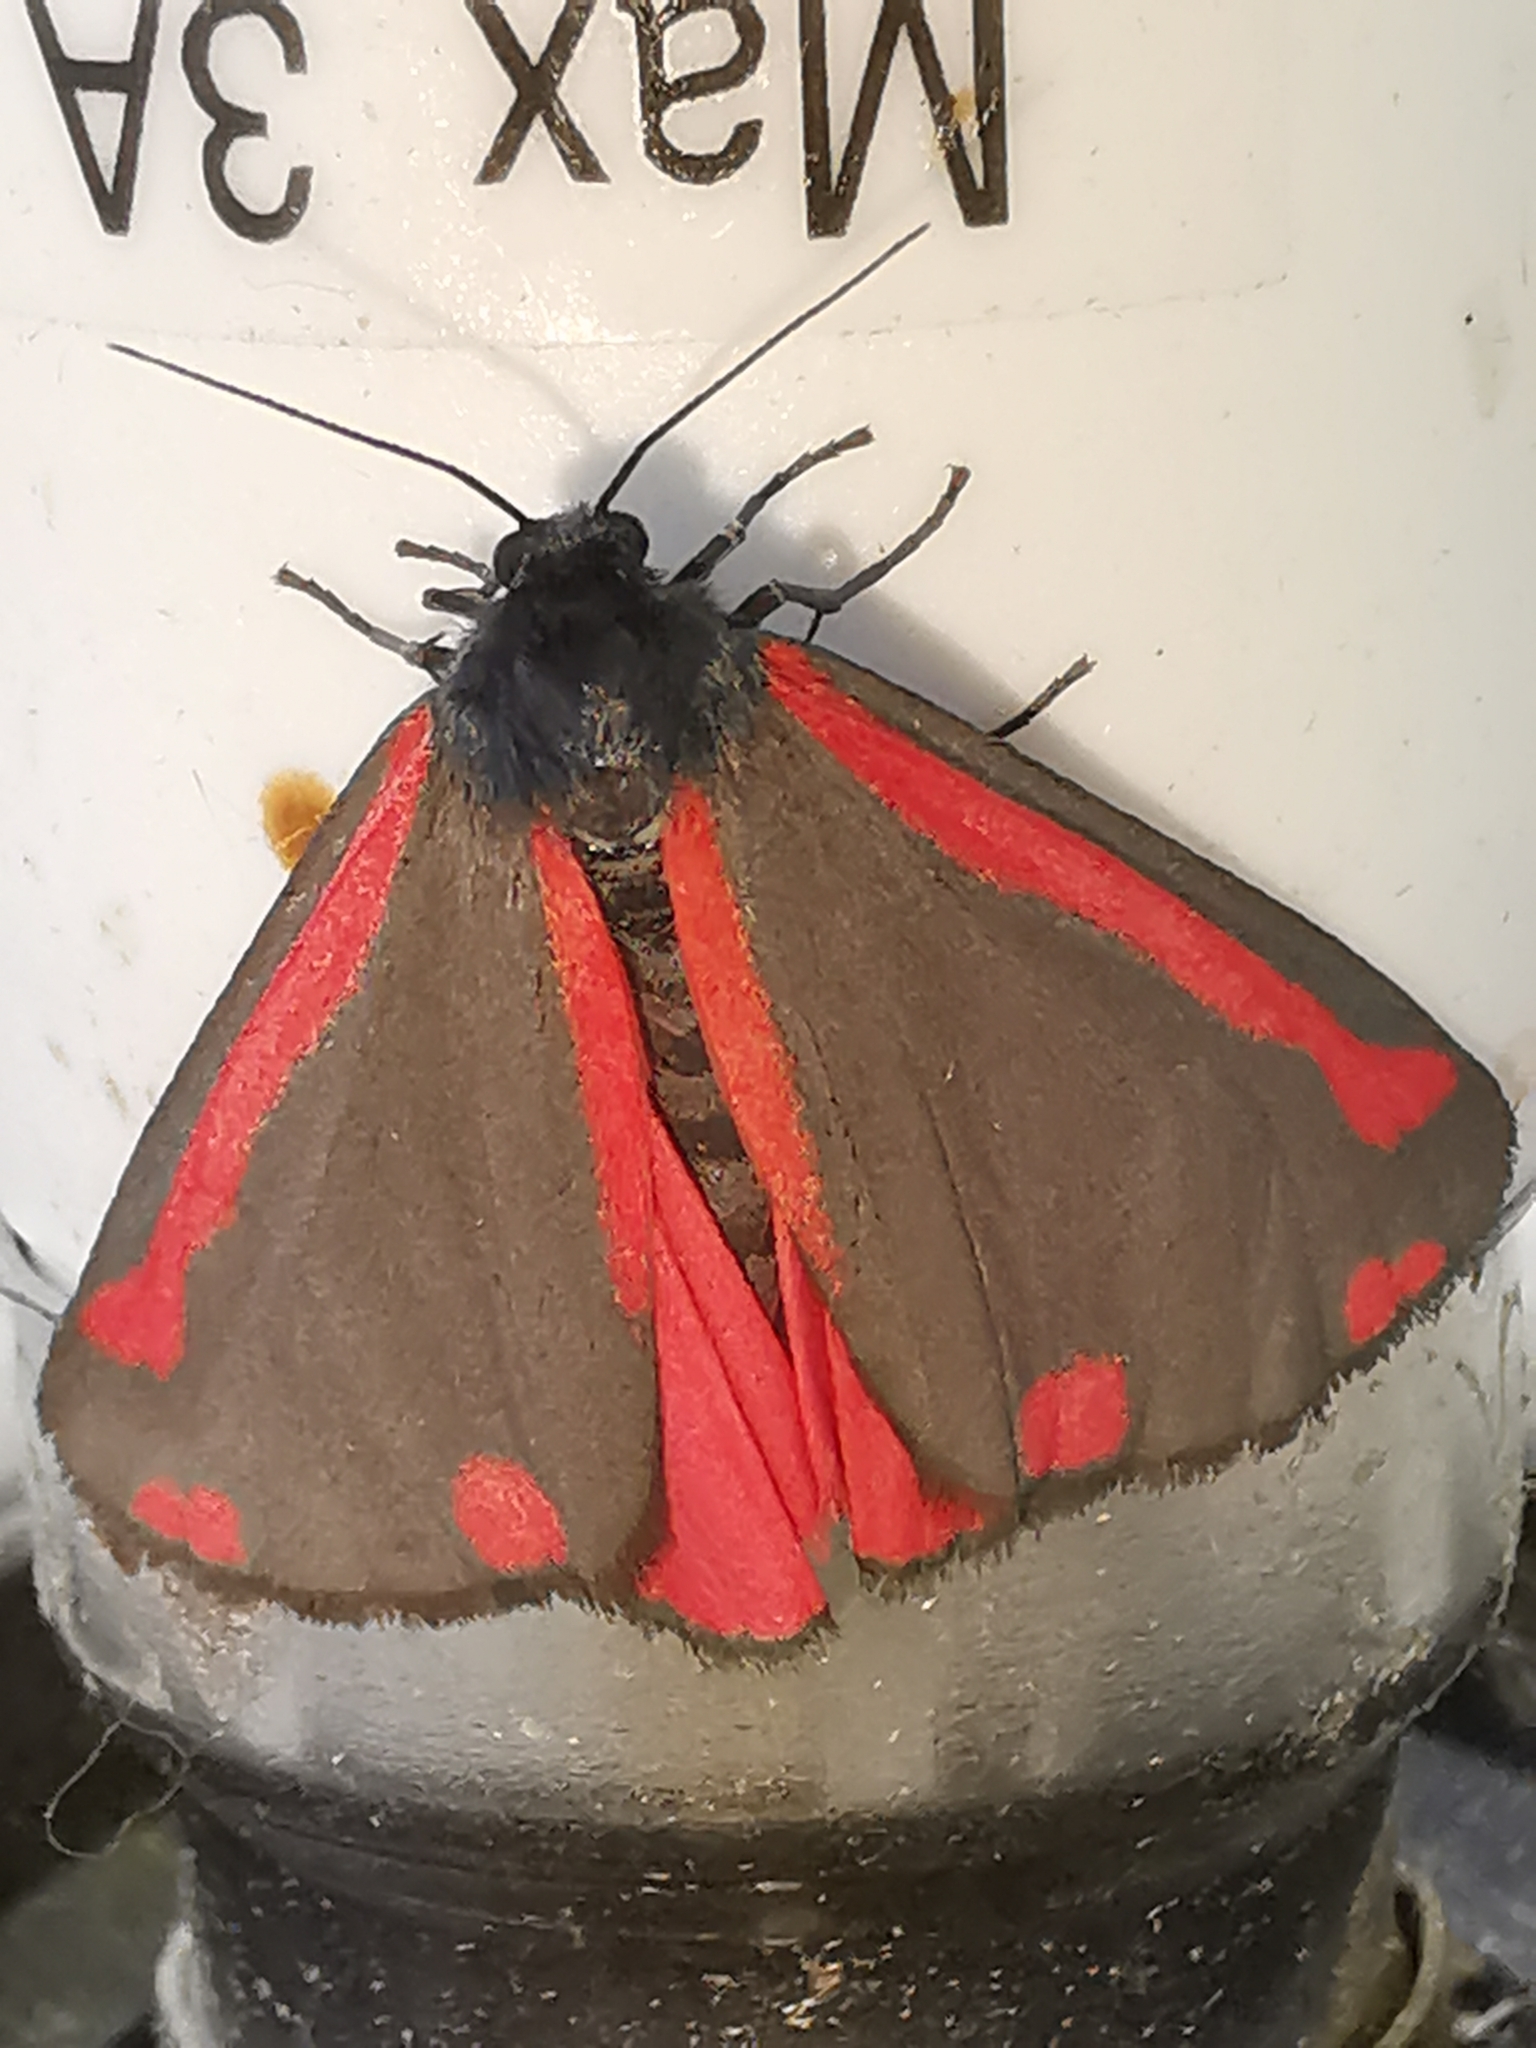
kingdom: Animalia
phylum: Arthropoda
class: Insecta
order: Lepidoptera
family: Erebidae
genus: Tyria
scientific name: Tyria jacobaeae
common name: Cinnabar
